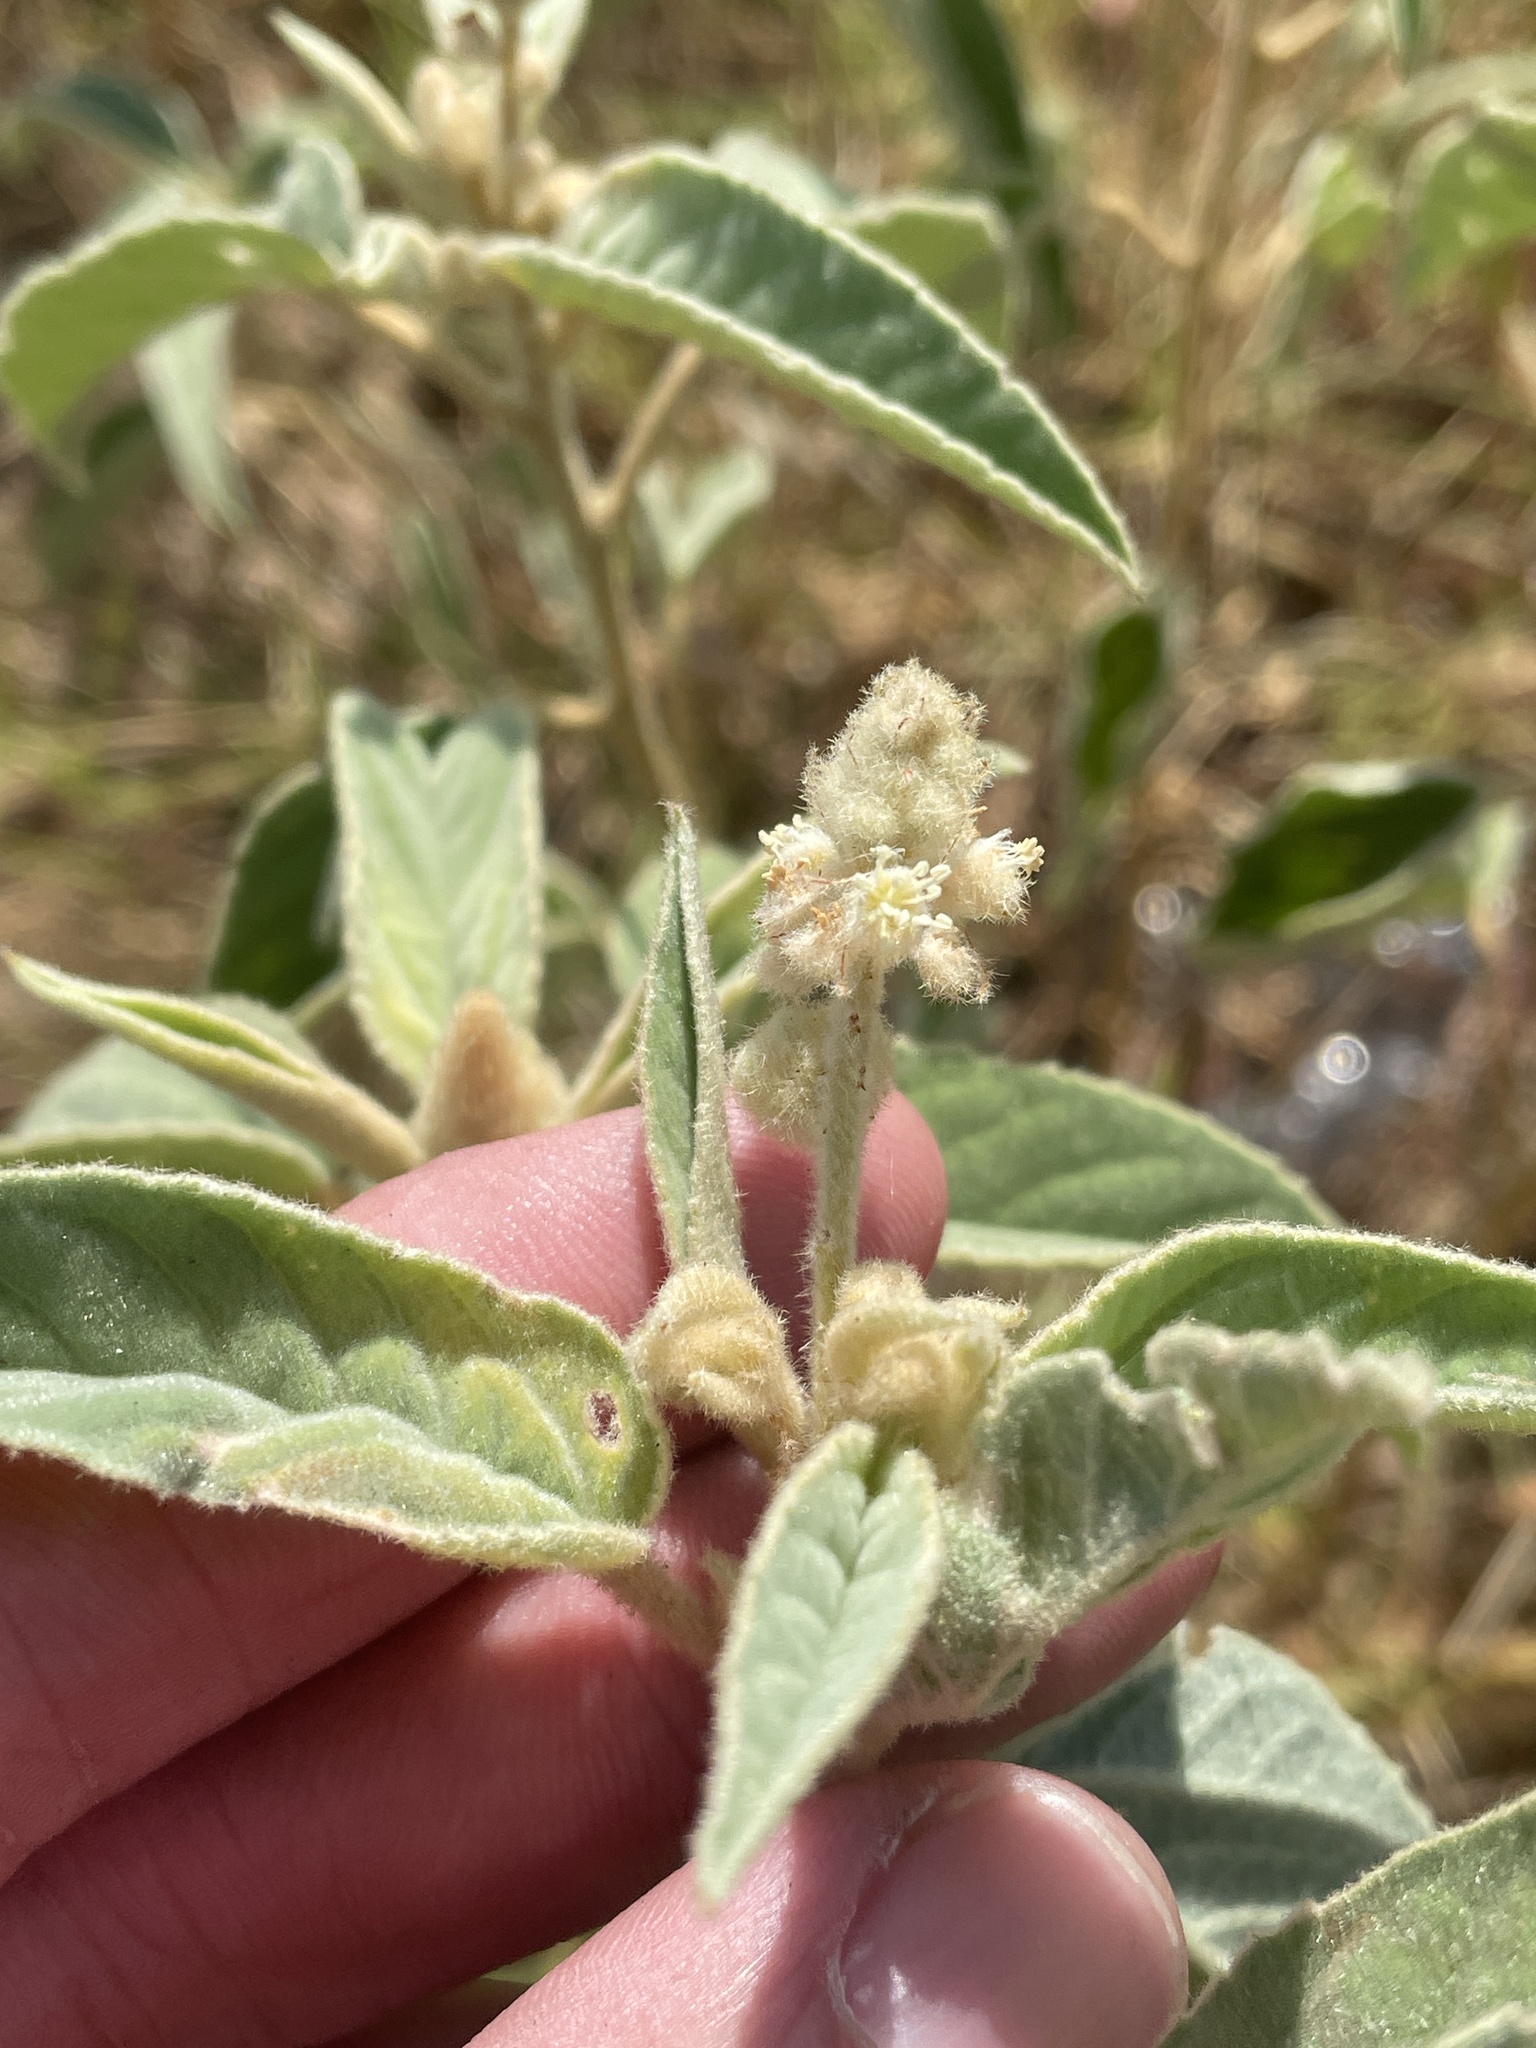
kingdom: Plantae
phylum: Tracheophyta
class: Magnoliopsida
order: Malpighiales
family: Euphorbiaceae
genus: Croton
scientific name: Croton lindheimeri
